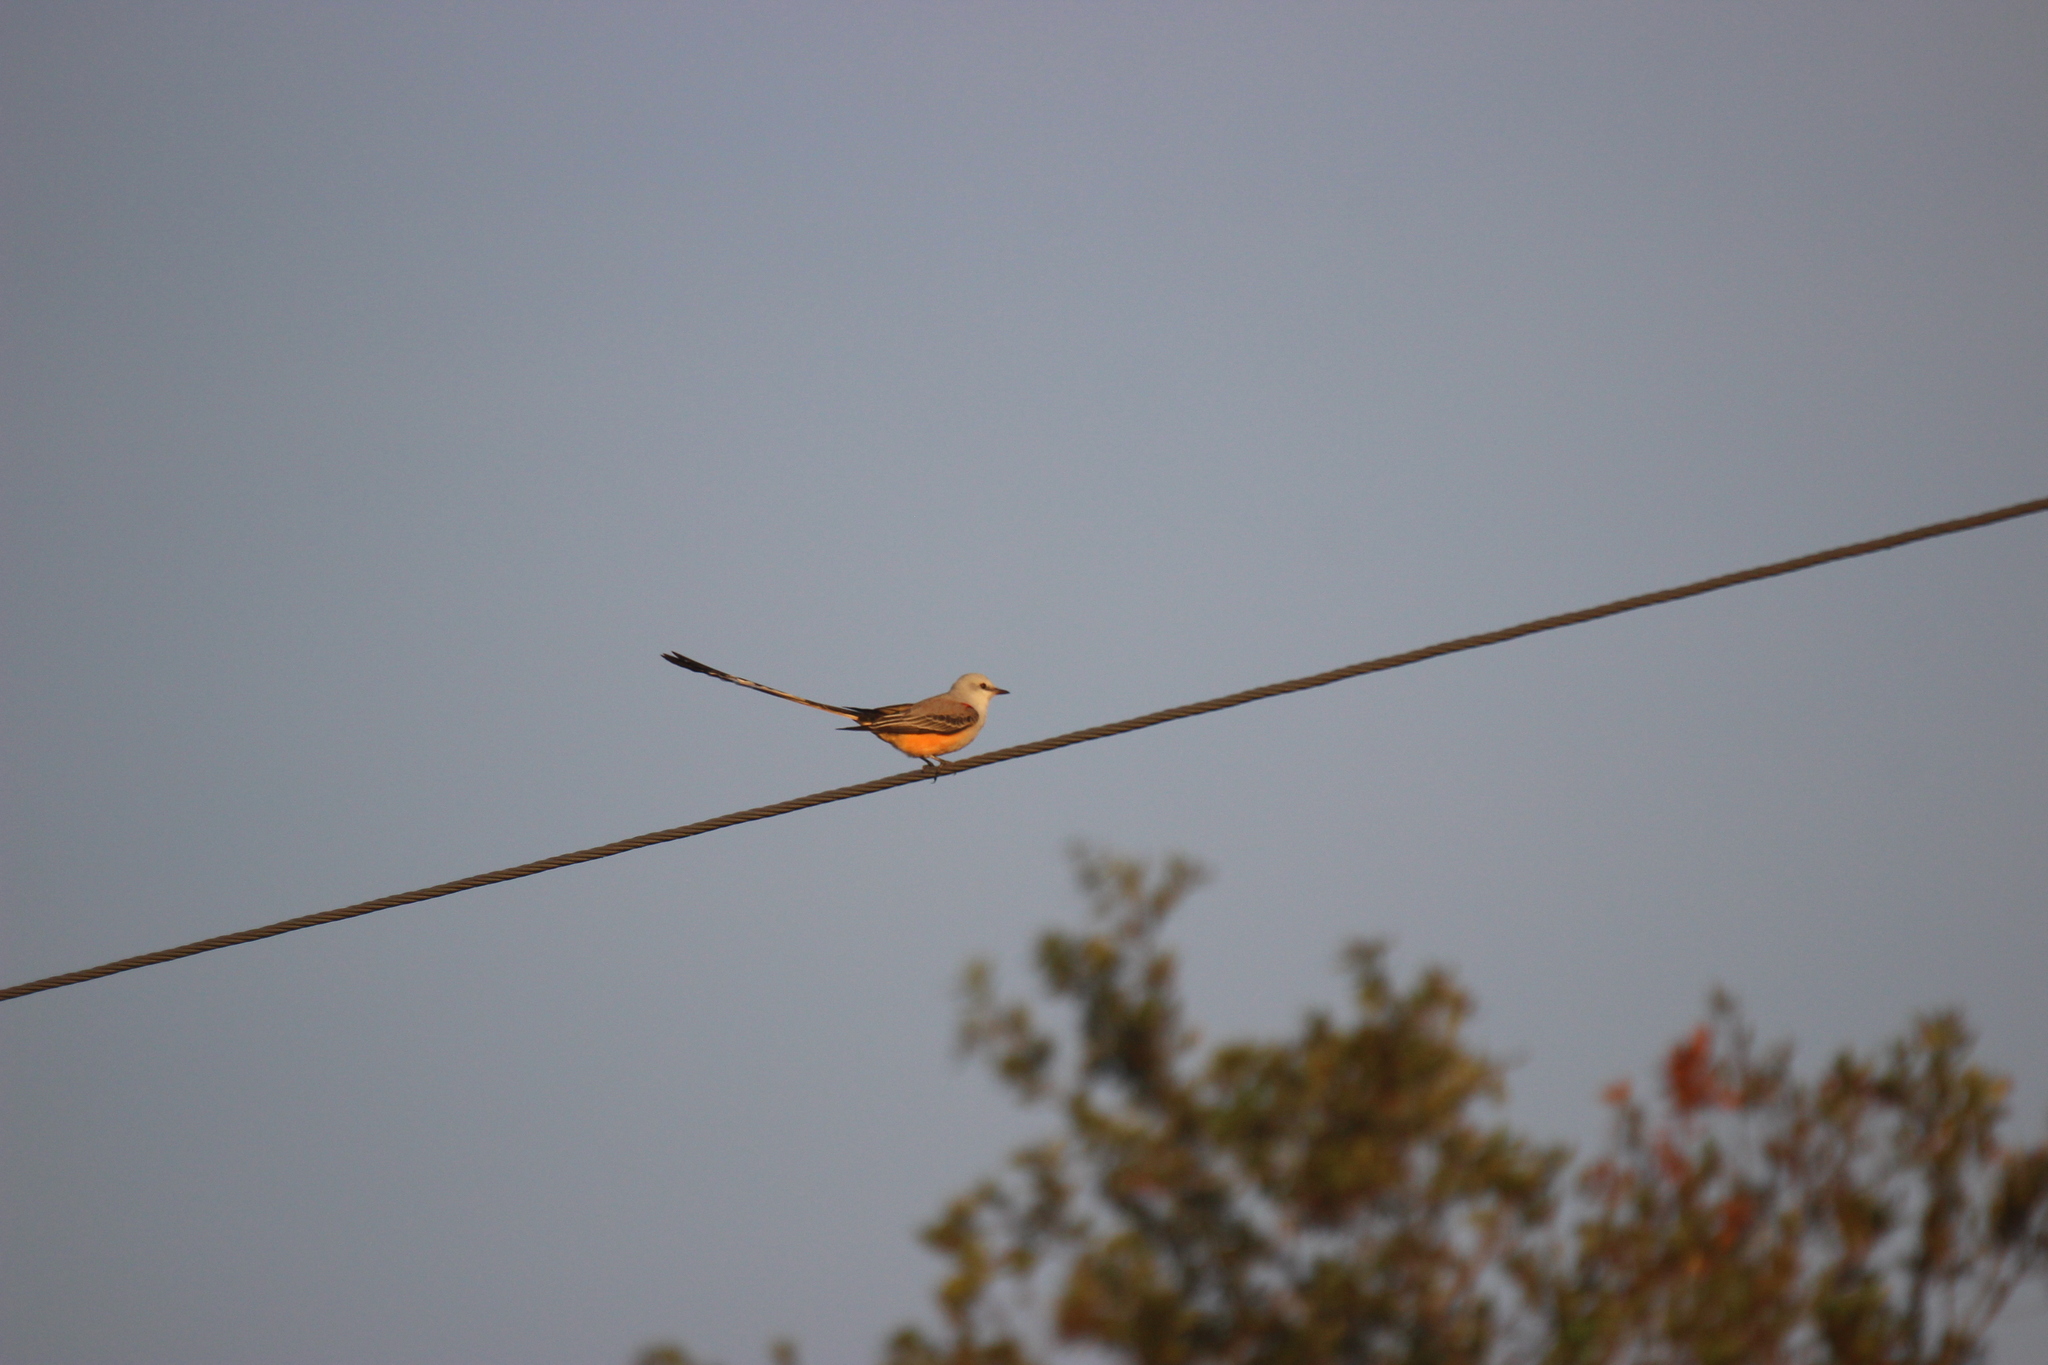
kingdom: Animalia
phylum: Chordata
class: Aves
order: Passeriformes
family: Tyrannidae
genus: Tyrannus
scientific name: Tyrannus forficatus
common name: Scissor-tailed flycatcher
